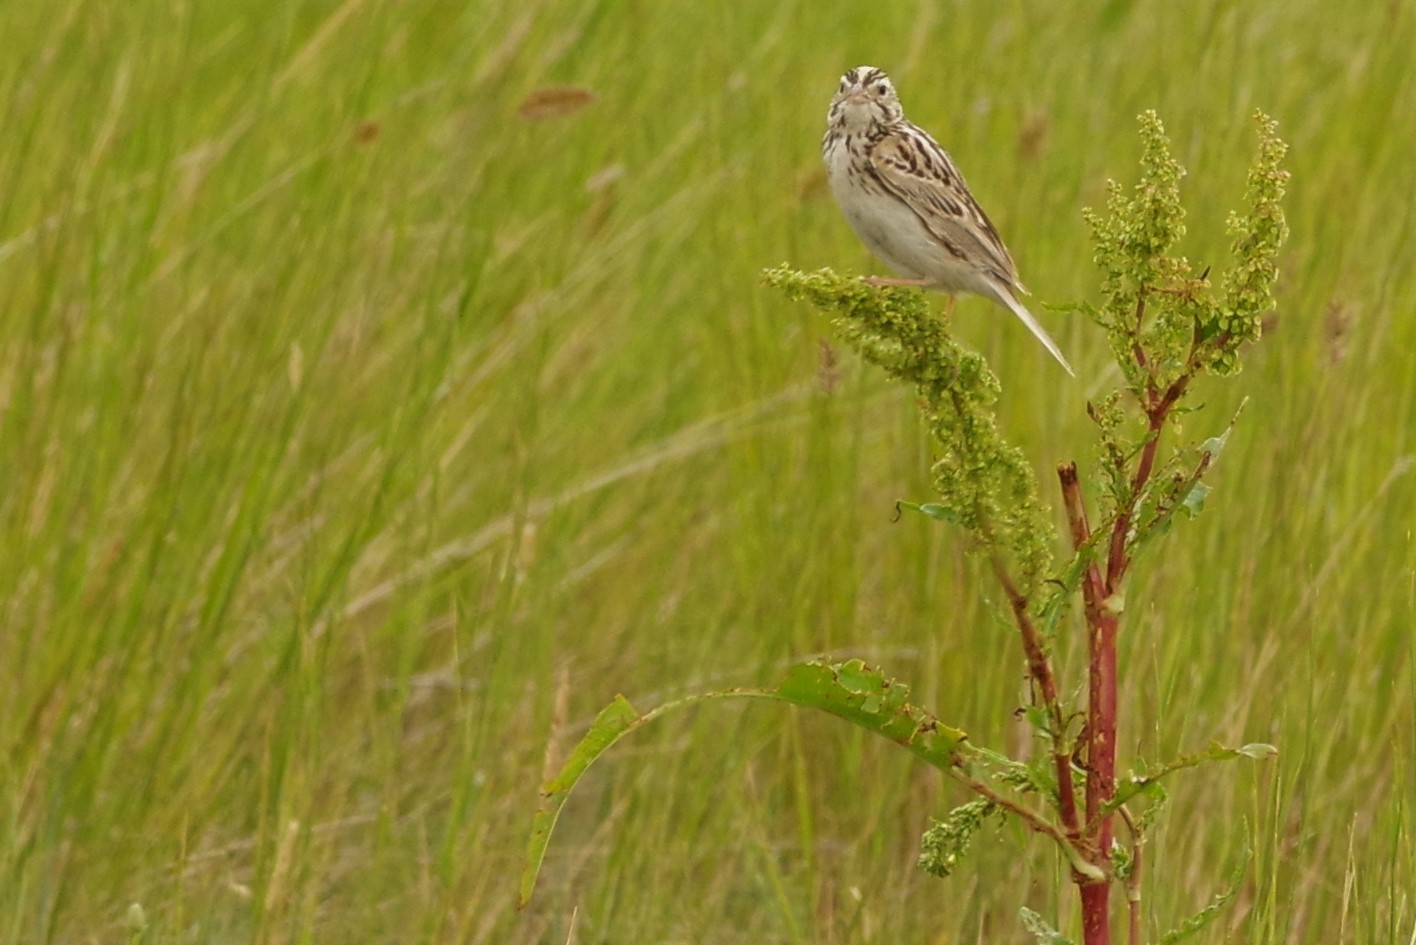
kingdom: Animalia
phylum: Chordata
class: Aves
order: Passeriformes
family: Passerellidae
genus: Centronyx
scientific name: Centronyx bairdii
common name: Baird's sparrow
